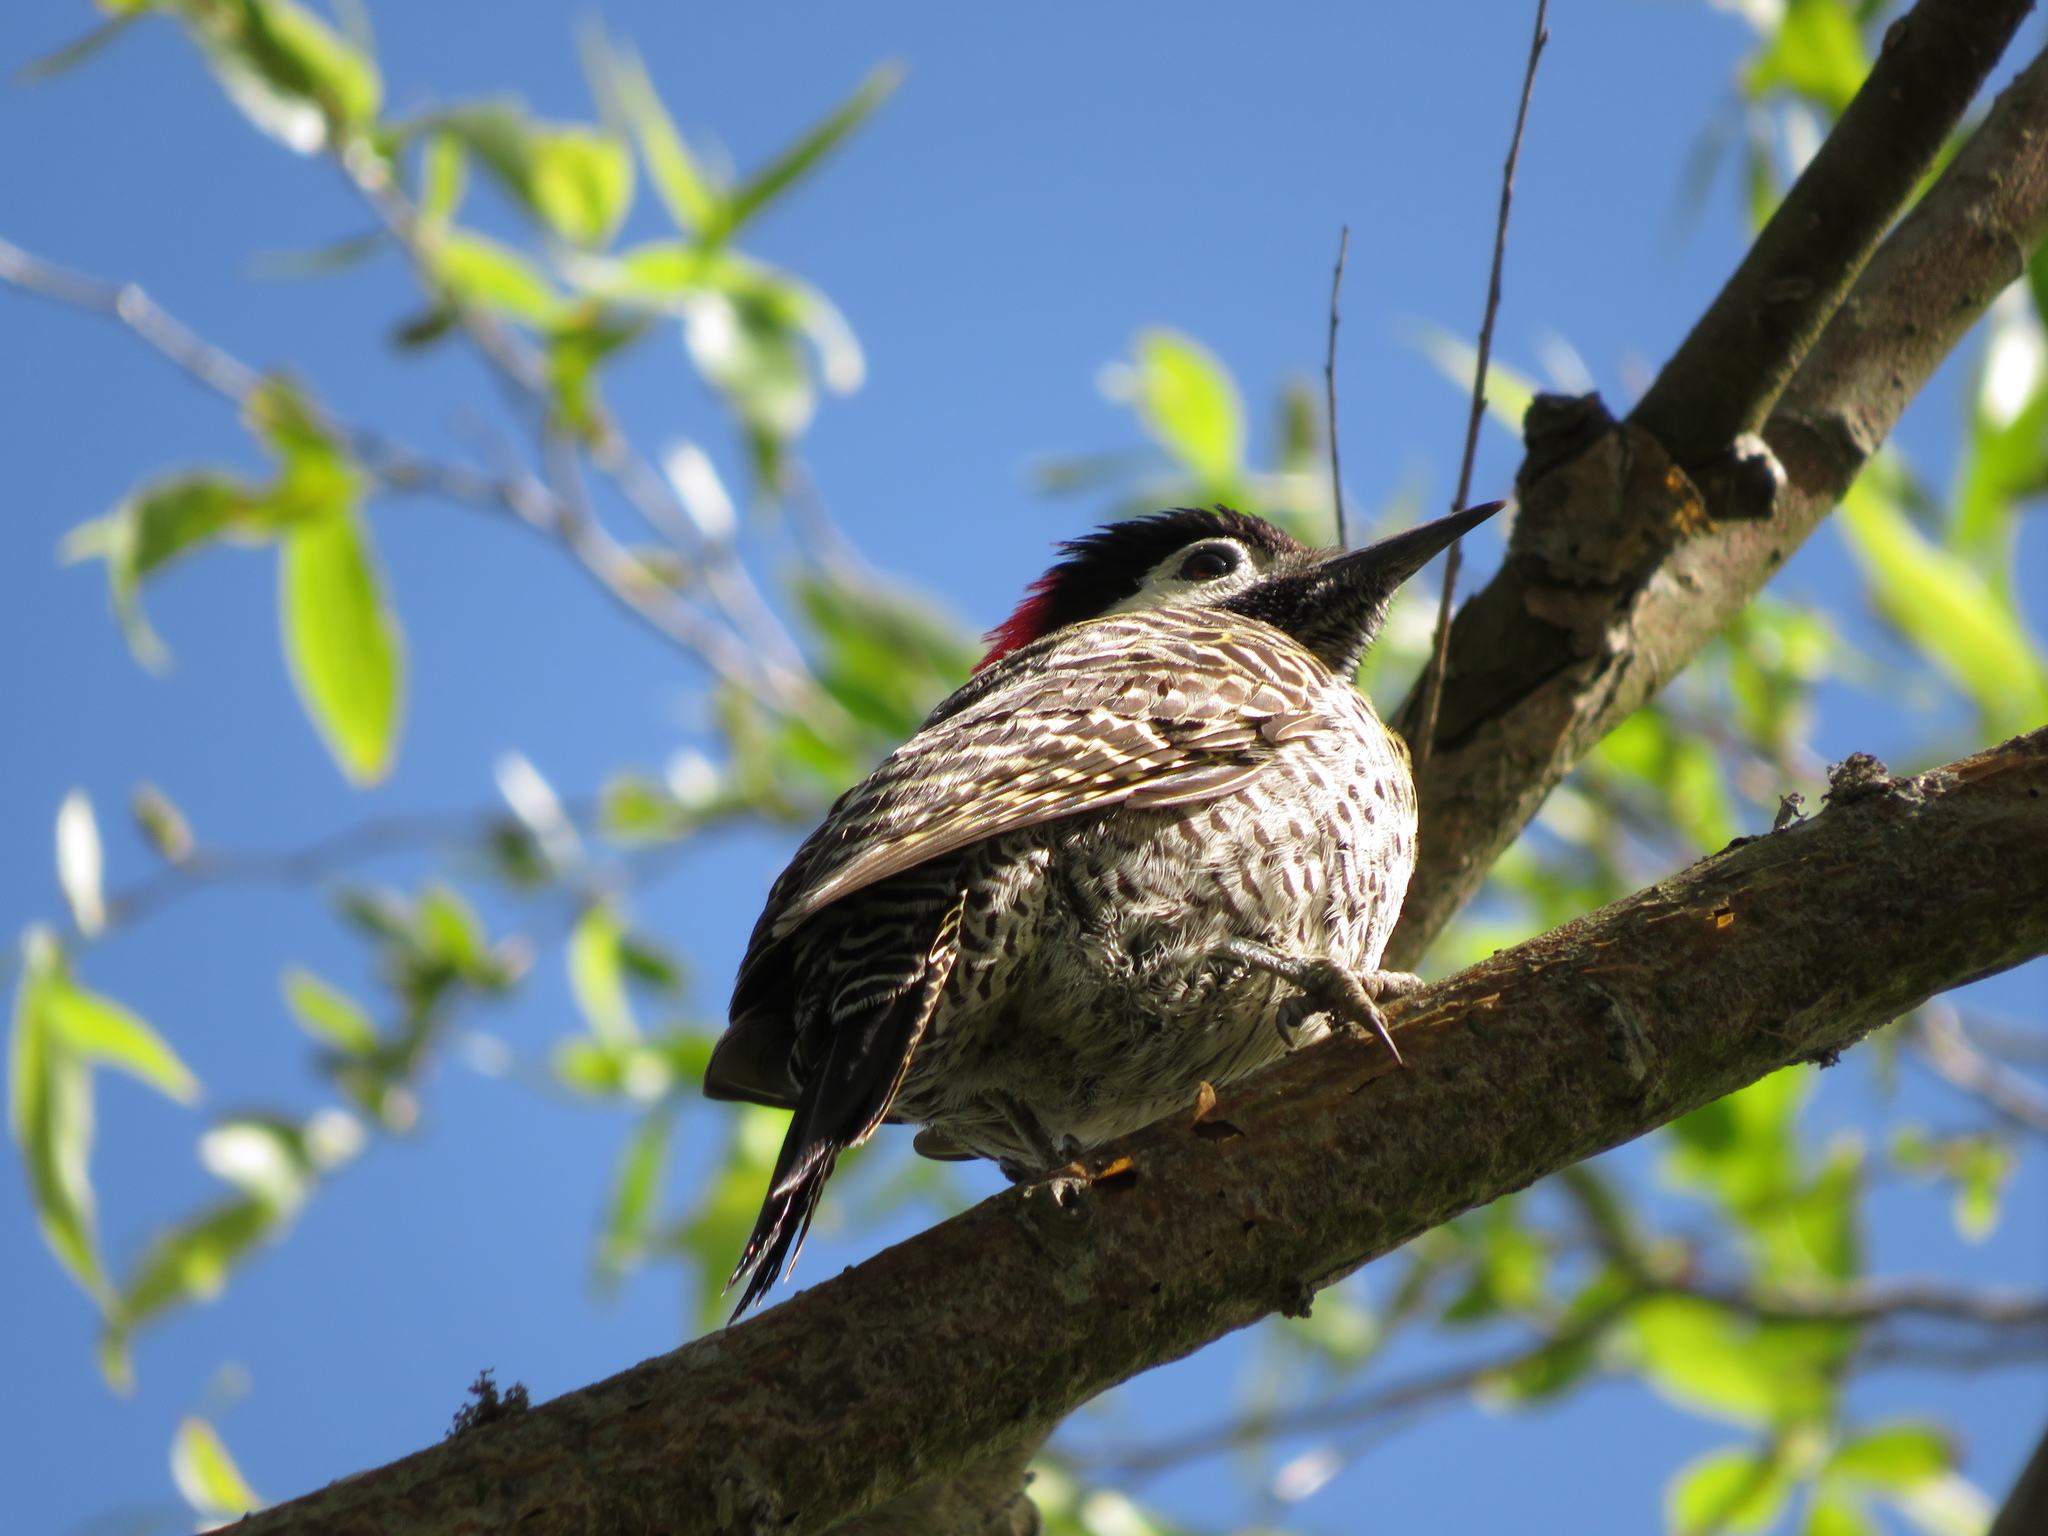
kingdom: Animalia
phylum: Chordata
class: Aves
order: Piciformes
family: Picidae
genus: Colaptes
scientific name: Colaptes melanochloros
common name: Green-barred woodpecker
